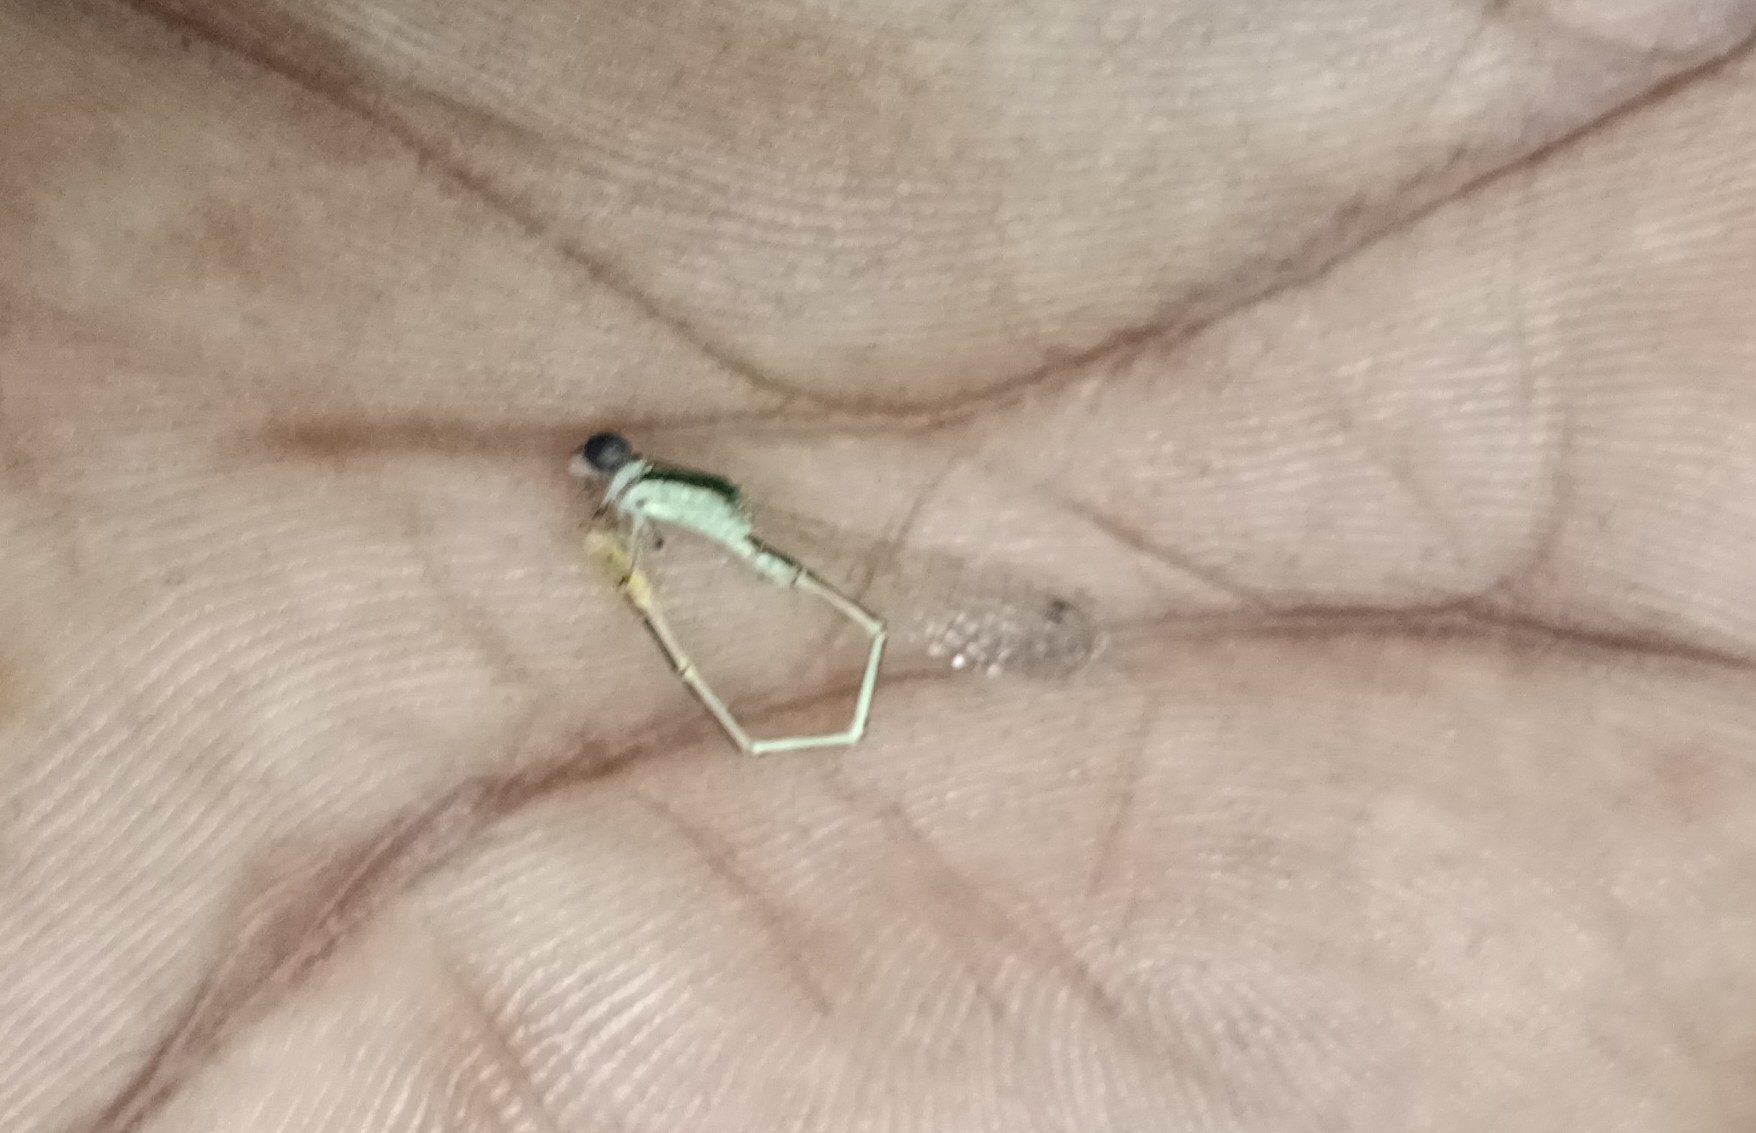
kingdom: Animalia
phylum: Arthropoda
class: Insecta
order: Odonata
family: Coenagrionidae
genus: Agriocnemis
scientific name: Agriocnemis pygmaea
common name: Pygmy wisp
